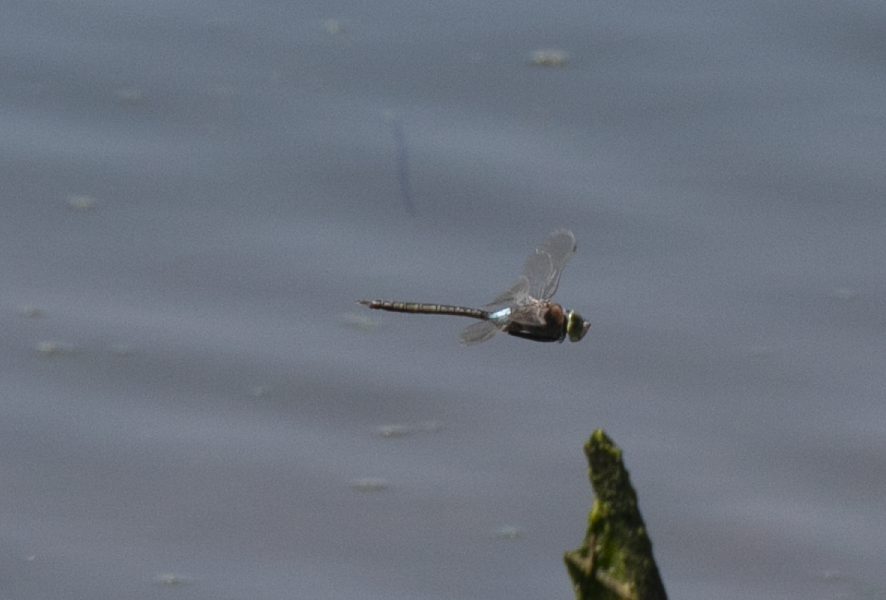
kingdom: Animalia
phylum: Arthropoda
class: Insecta
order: Odonata
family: Aeshnidae
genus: Anax
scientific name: Anax parthenope
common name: Lesser emperor
